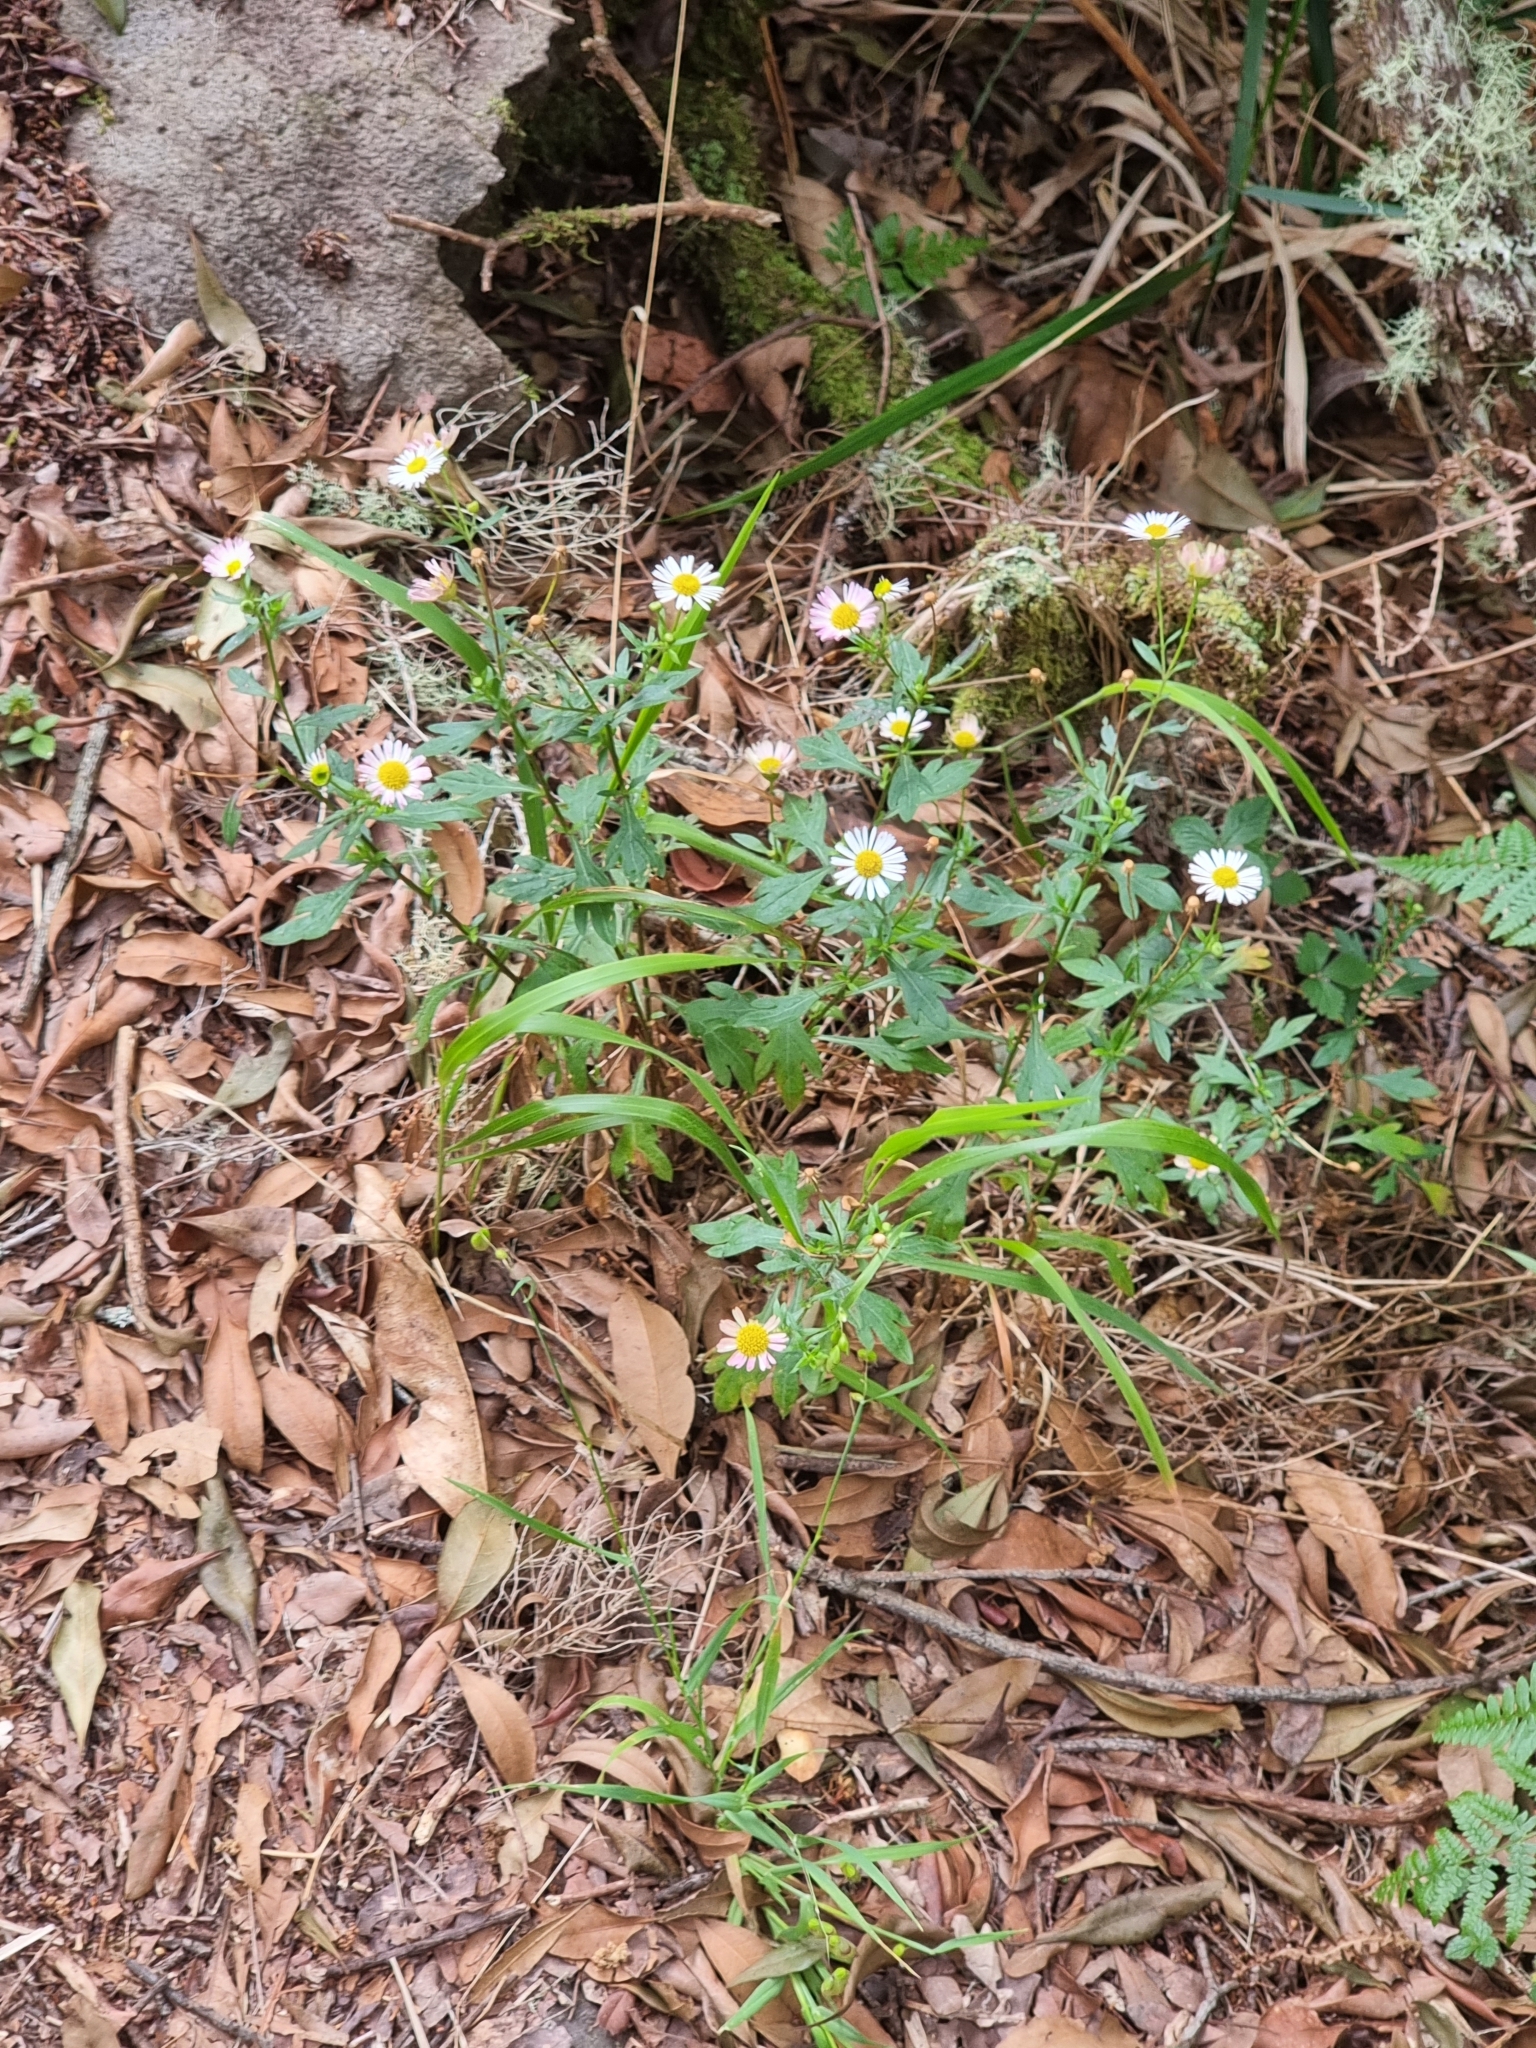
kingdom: Plantae
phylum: Tracheophyta
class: Magnoliopsida
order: Asterales
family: Asteraceae
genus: Erigeron
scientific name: Erigeron karvinskianus
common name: Mexican fleabane
